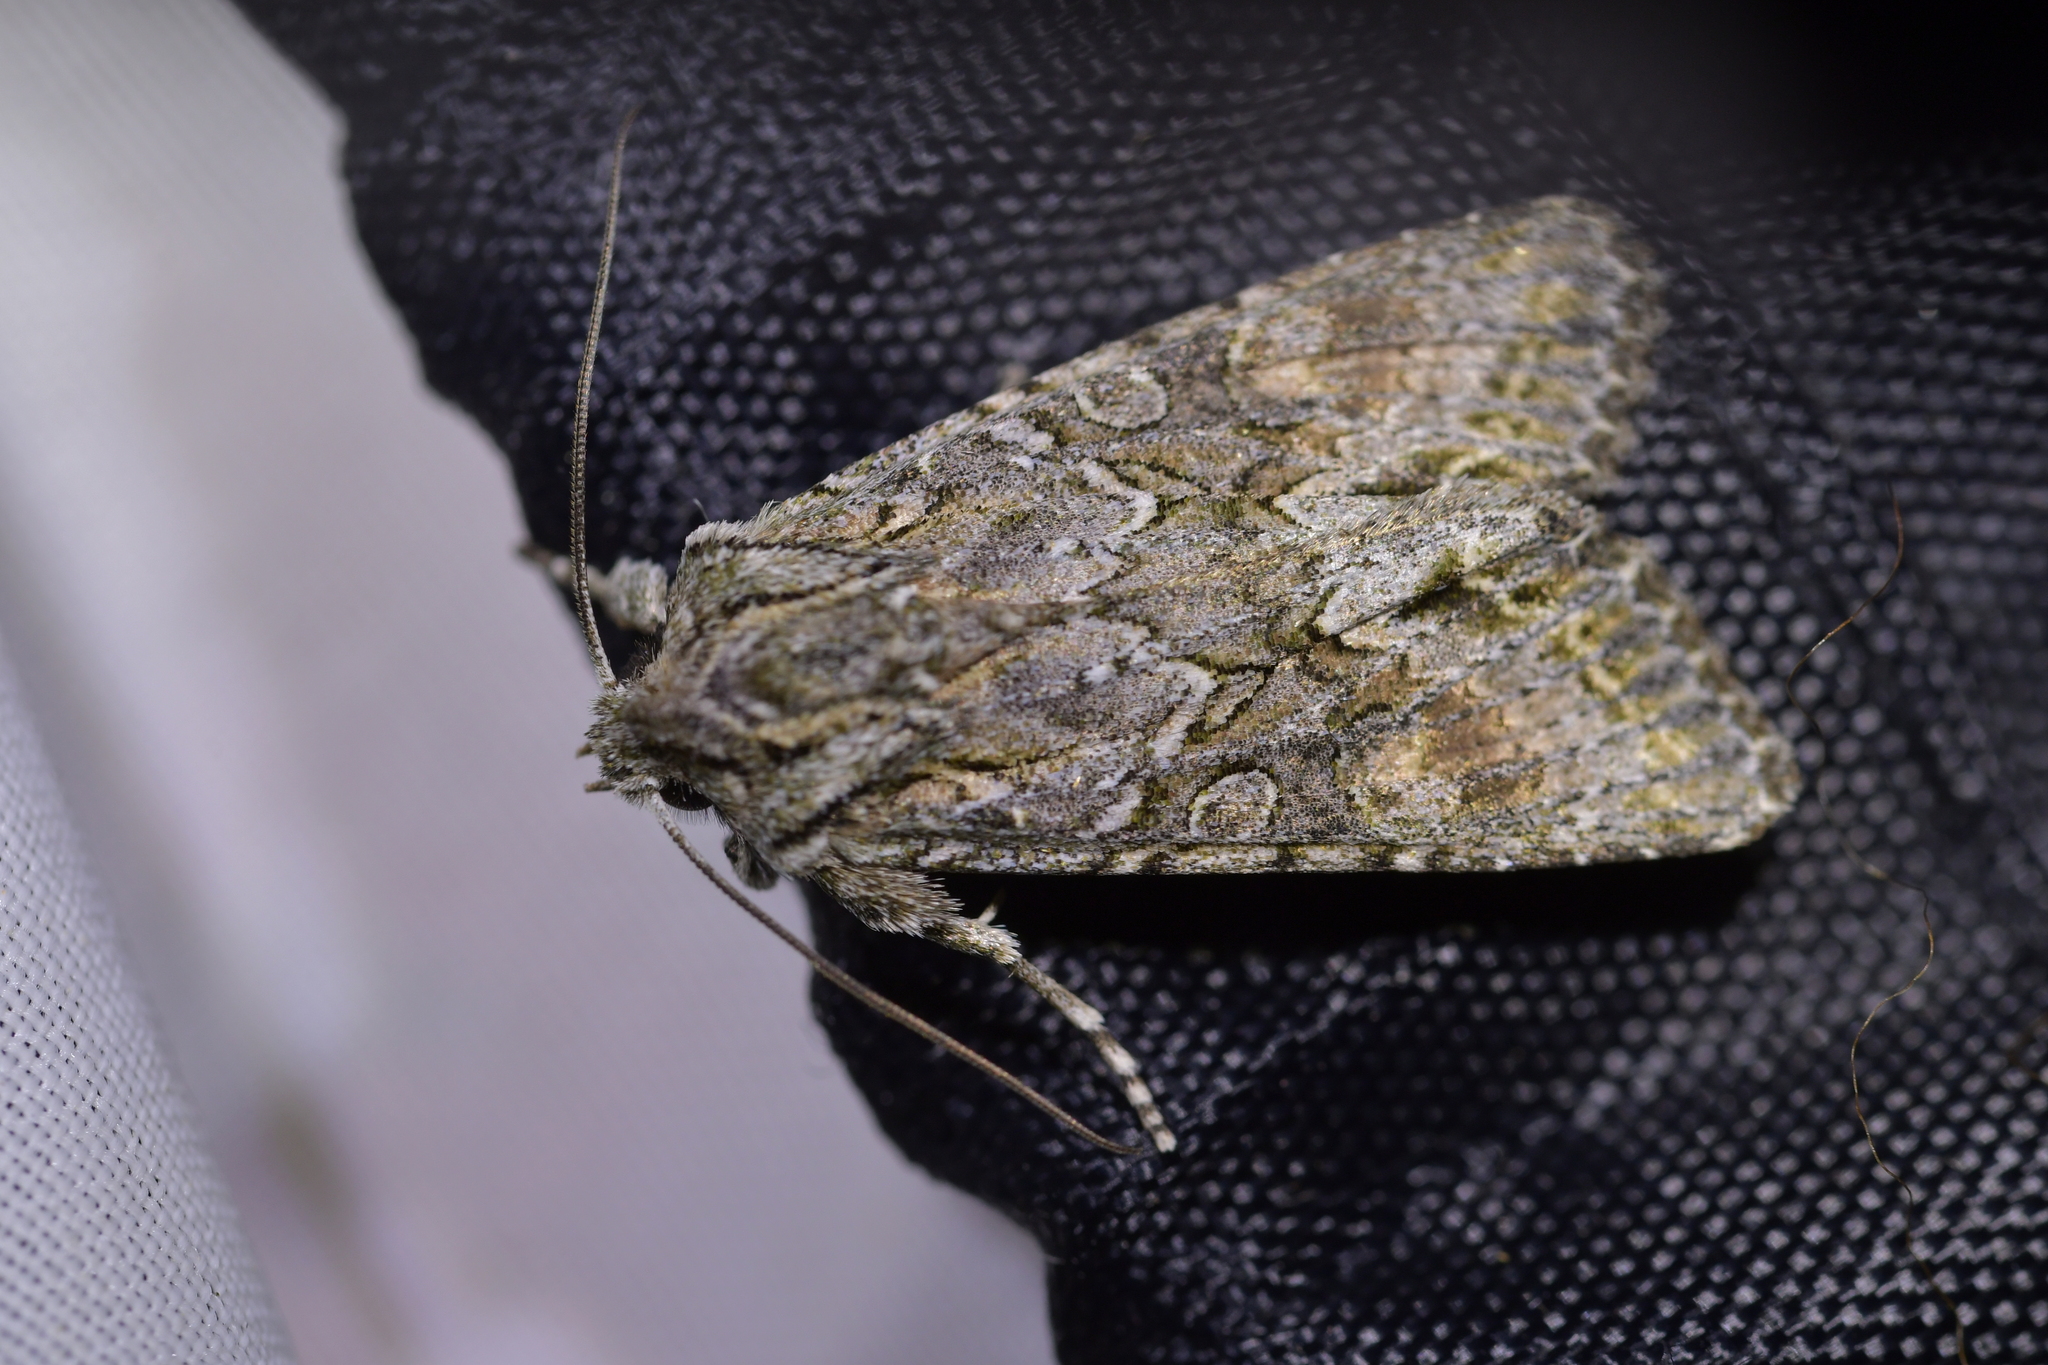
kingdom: Animalia
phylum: Arthropoda
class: Insecta
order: Lepidoptera
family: Noctuidae
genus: Ichneutica
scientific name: Ichneutica mutans
